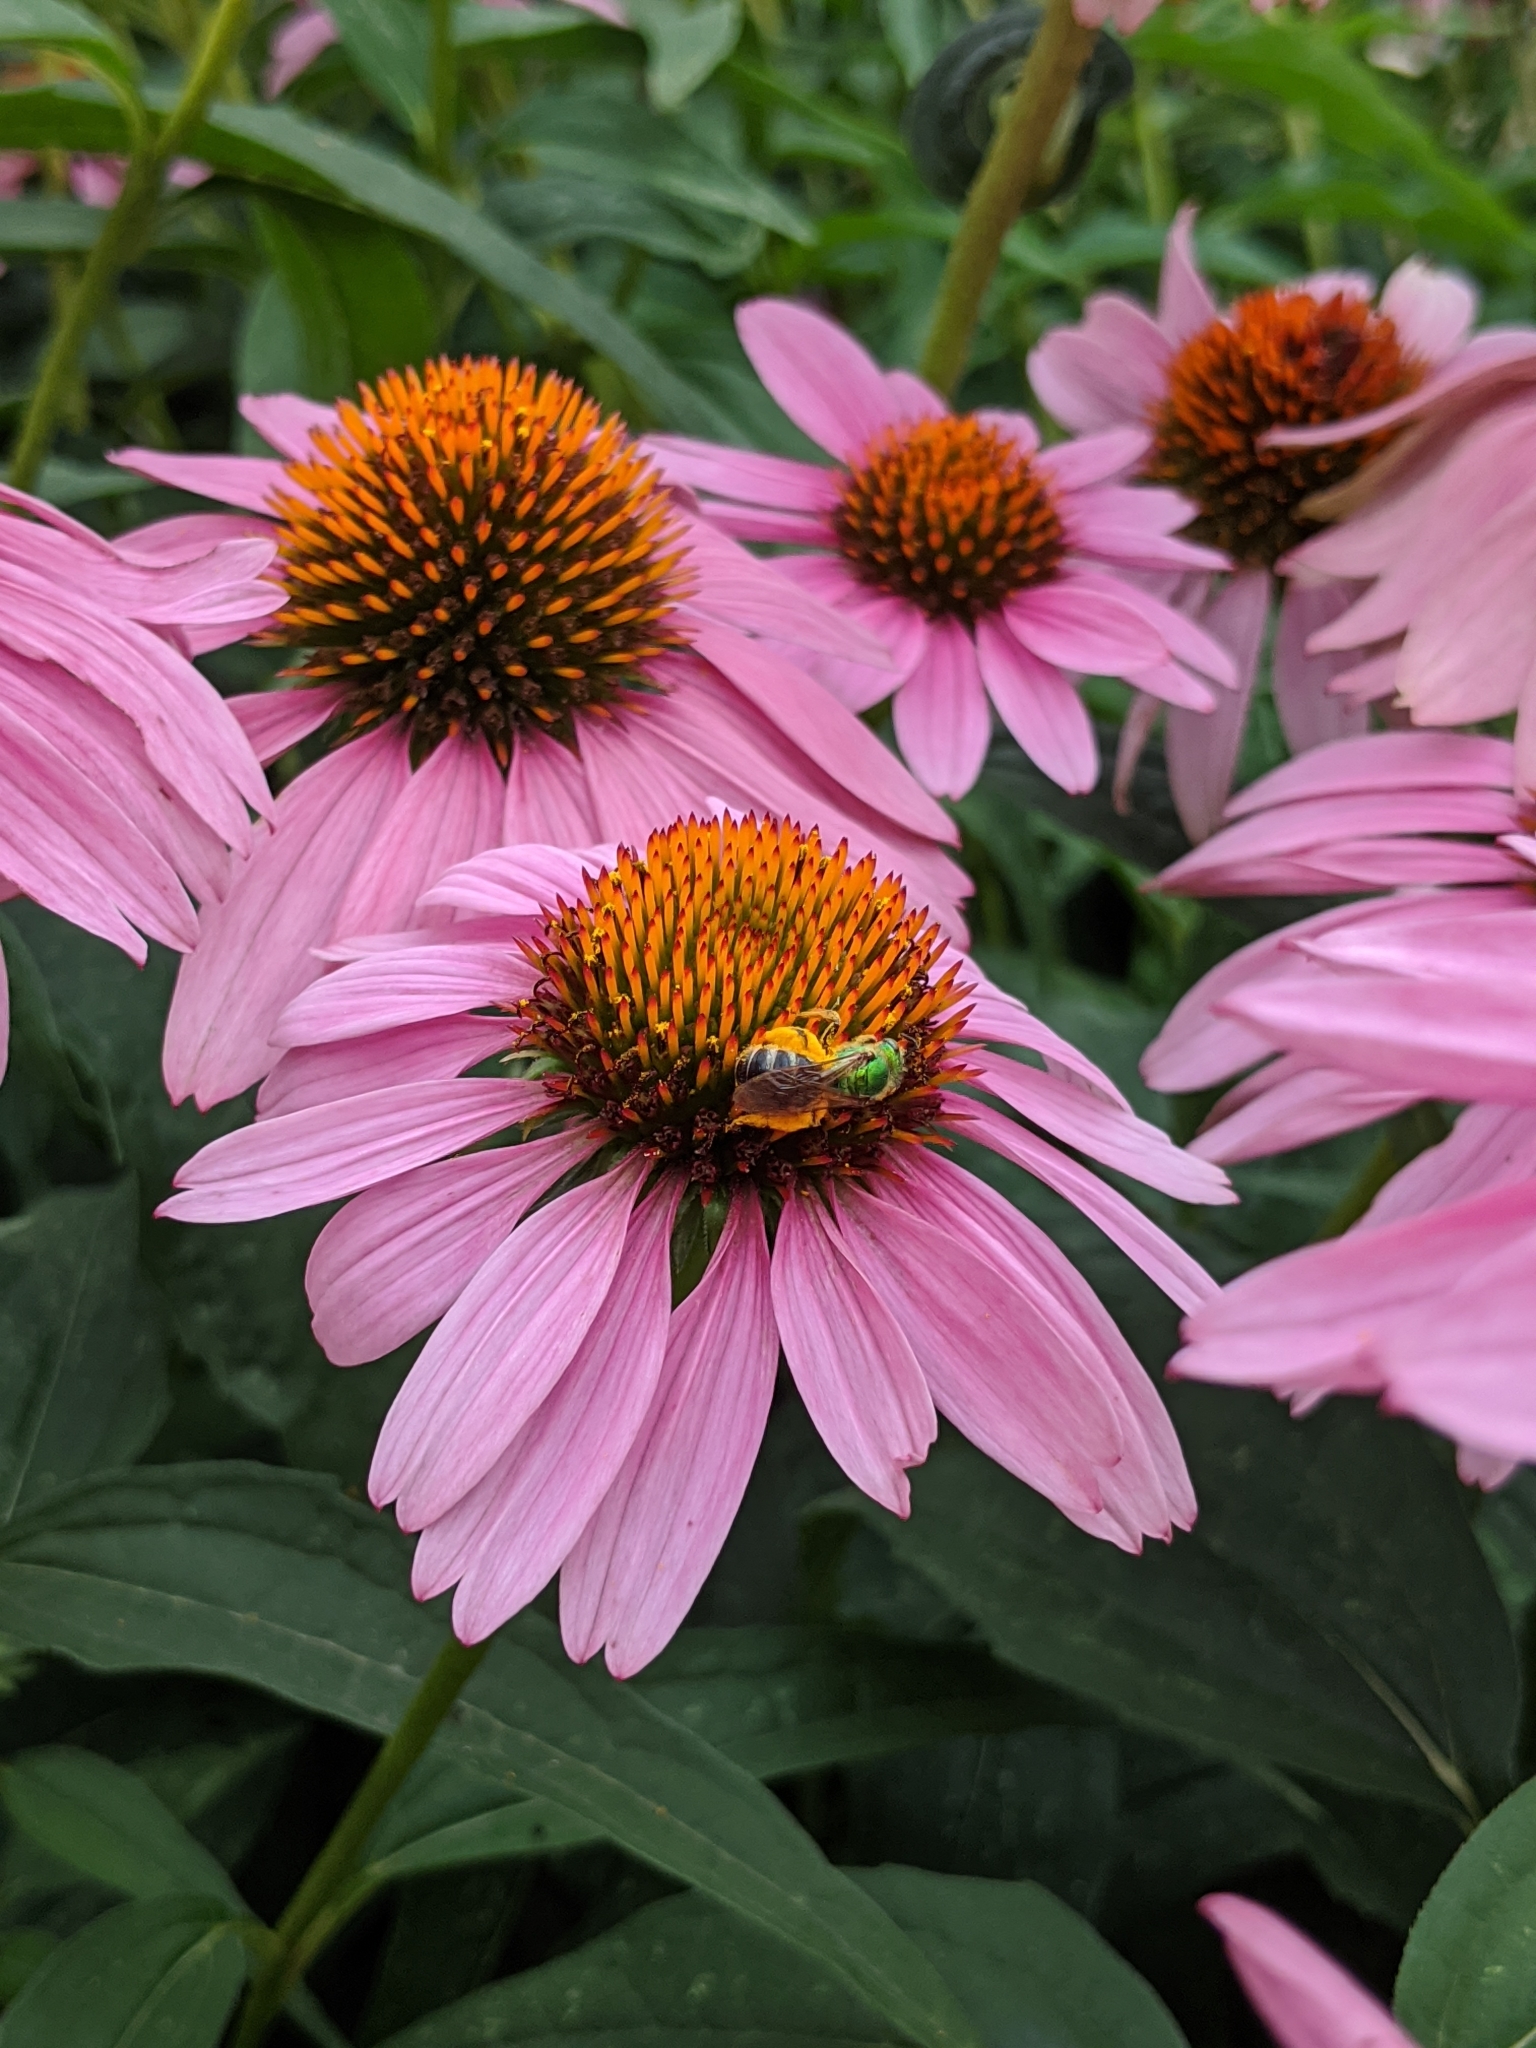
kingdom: Animalia
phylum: Arthropoda
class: Insecta
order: Hymenoptera
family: Halictidae
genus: Agapostemon
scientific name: Agapostemon virescens
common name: Bicolored striped sweat bee
